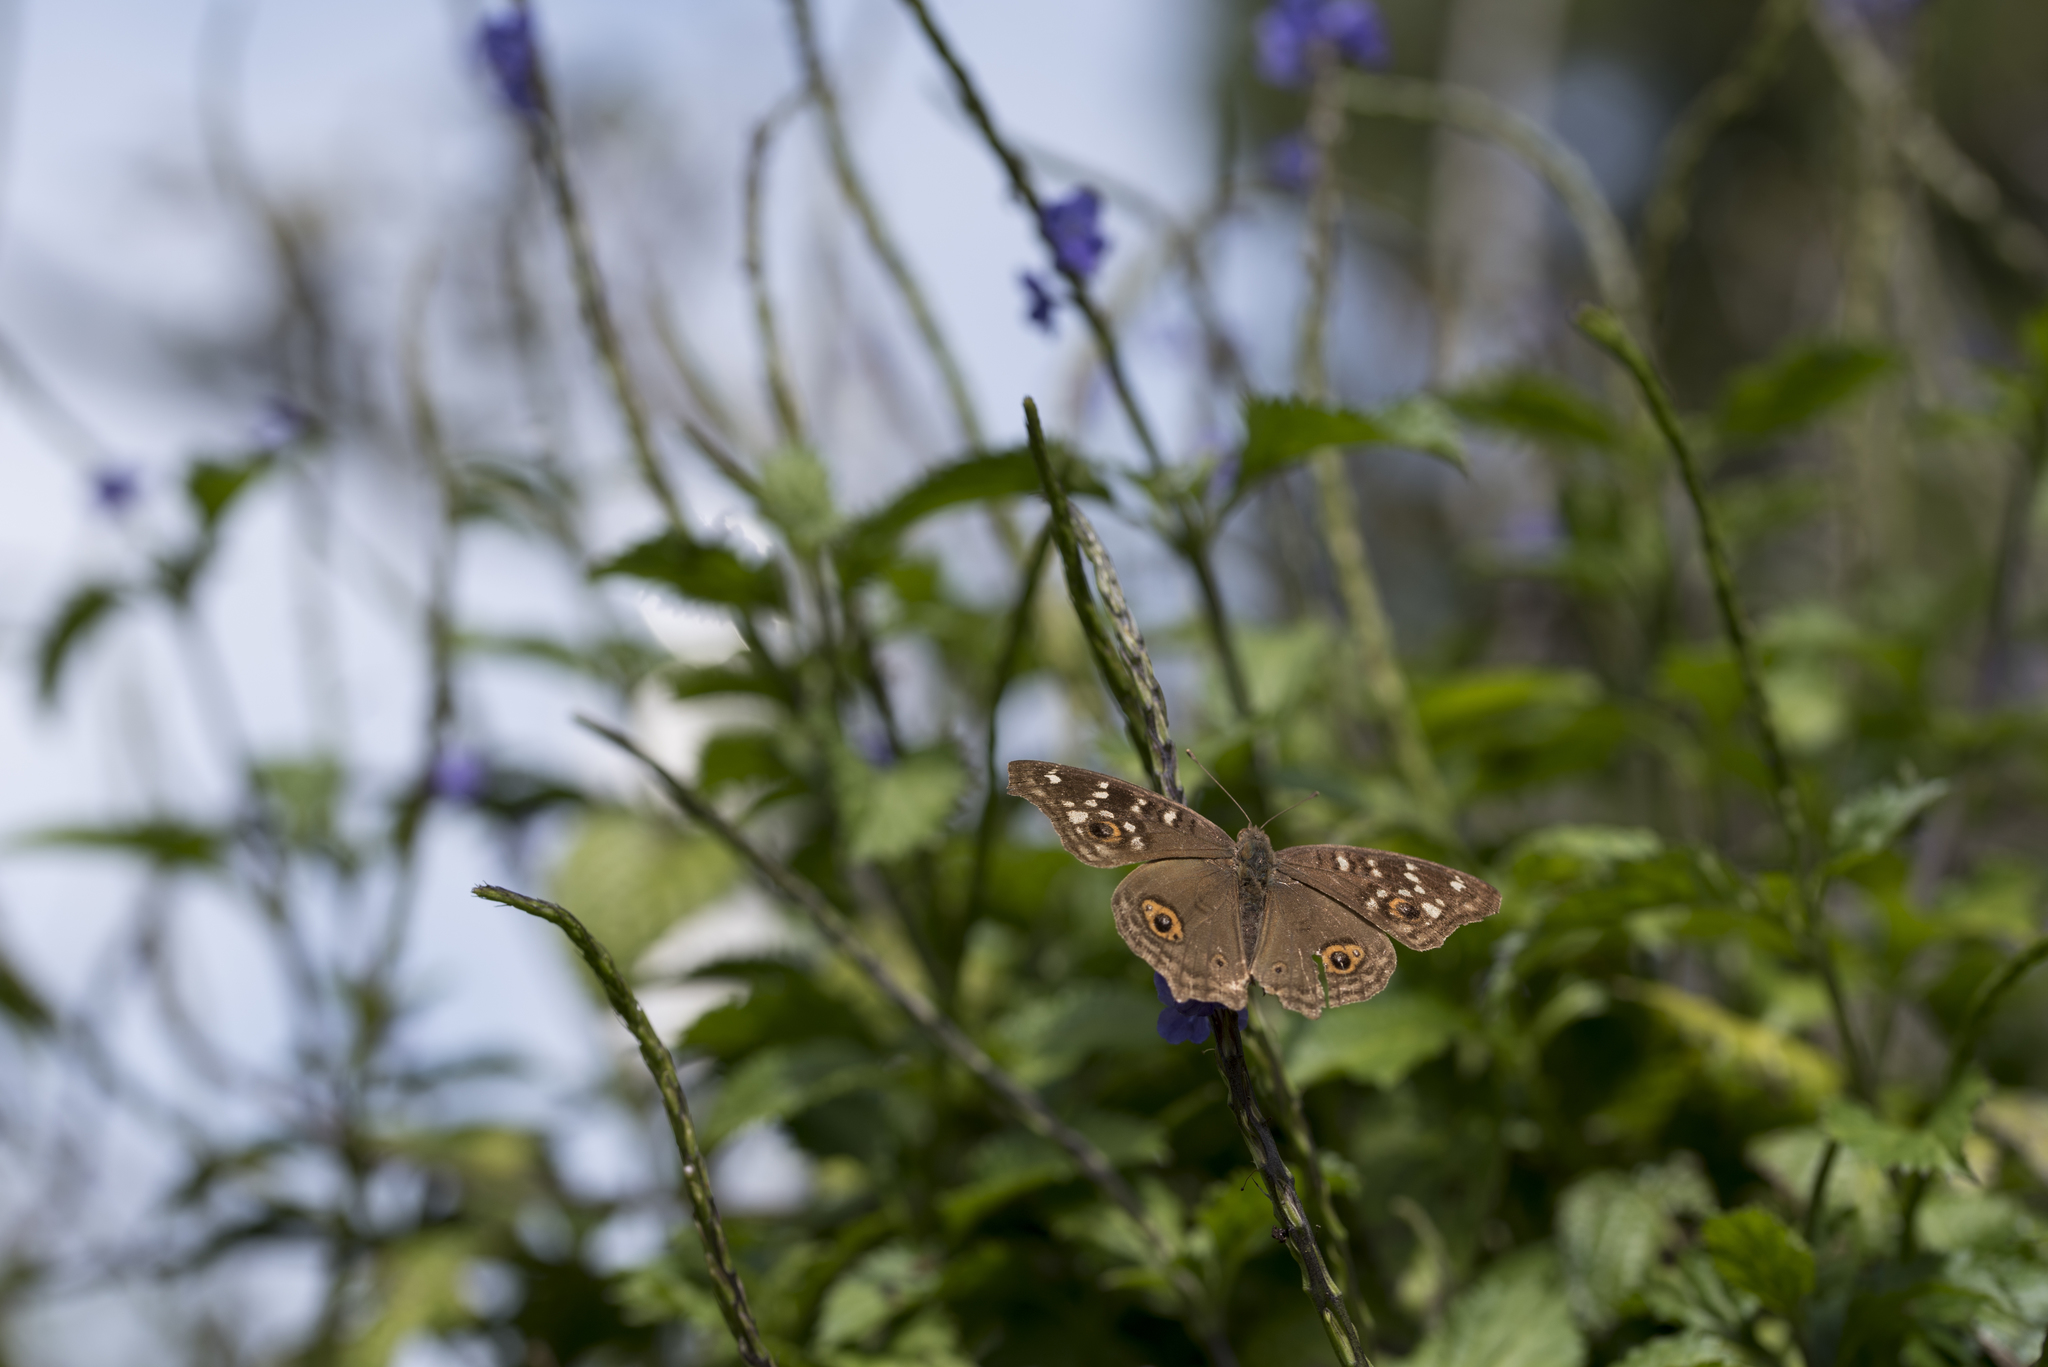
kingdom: Animalia
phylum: Arthropoda
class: Insecta
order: Lepidoptera
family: Nymphalidae
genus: Junonia
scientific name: Junonia lemonias
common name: Lemon pansy
